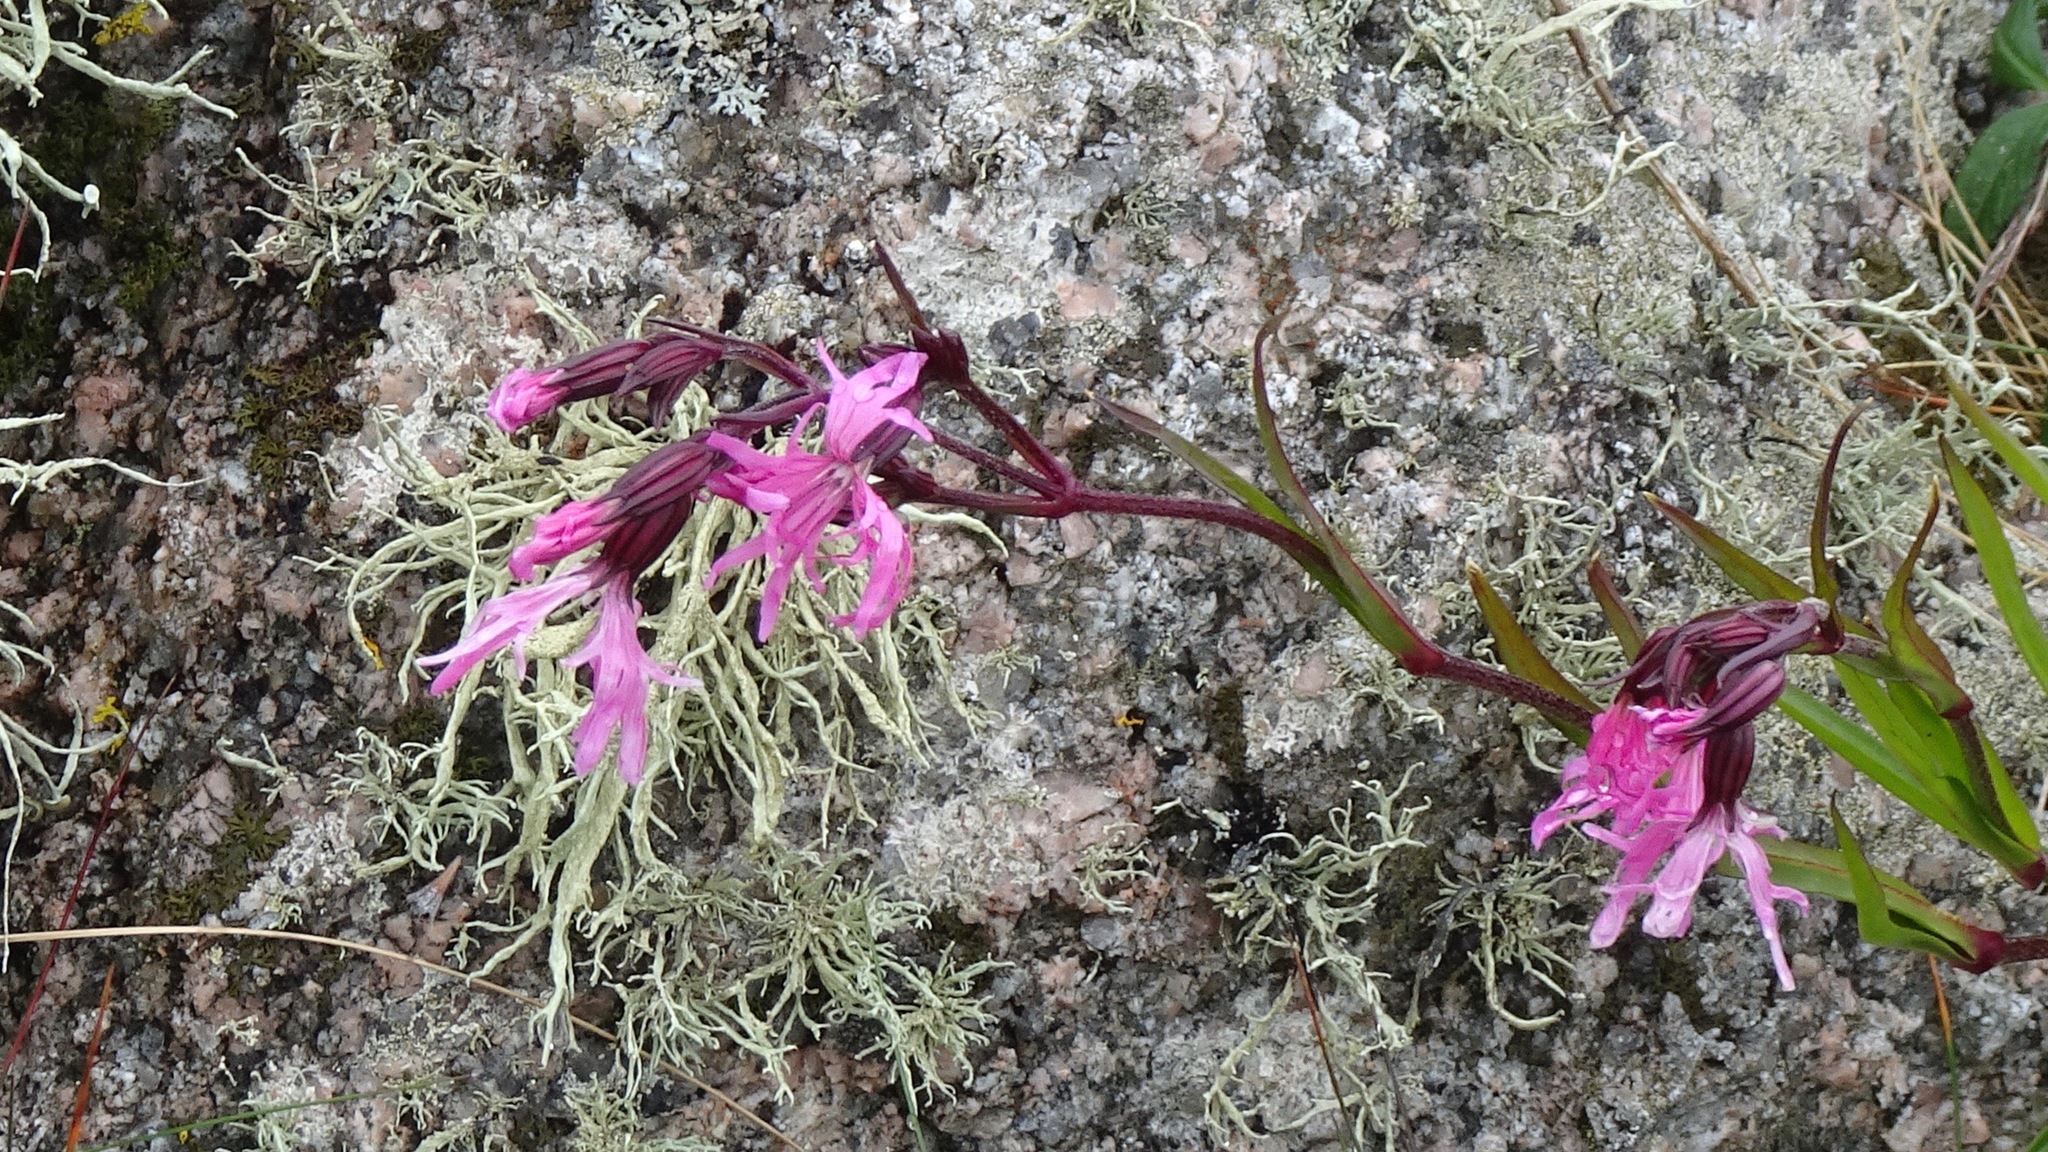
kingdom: Plantae
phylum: Tracheophyta
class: Magnoliopsida
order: Caryophyllales
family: Caryophyllaceae
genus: Silene
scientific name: Silene flos-cuculi
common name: Ragged-robin
